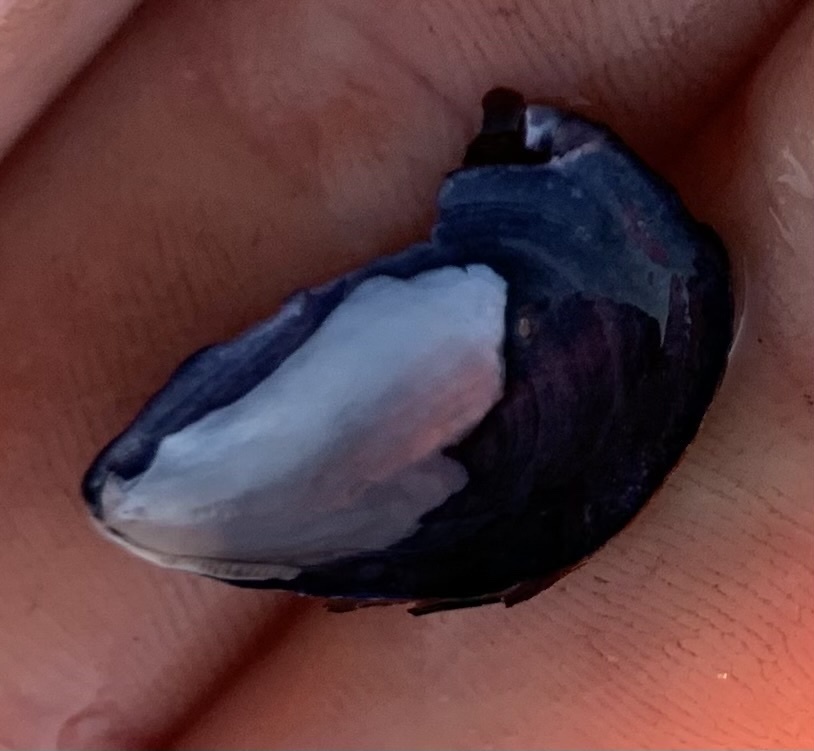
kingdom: Animalia
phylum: Mollusca
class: Bivalvia
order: Mytilida
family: Mytilidae
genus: Mytilus
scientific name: Mytilus edulis
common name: Blue mussel
